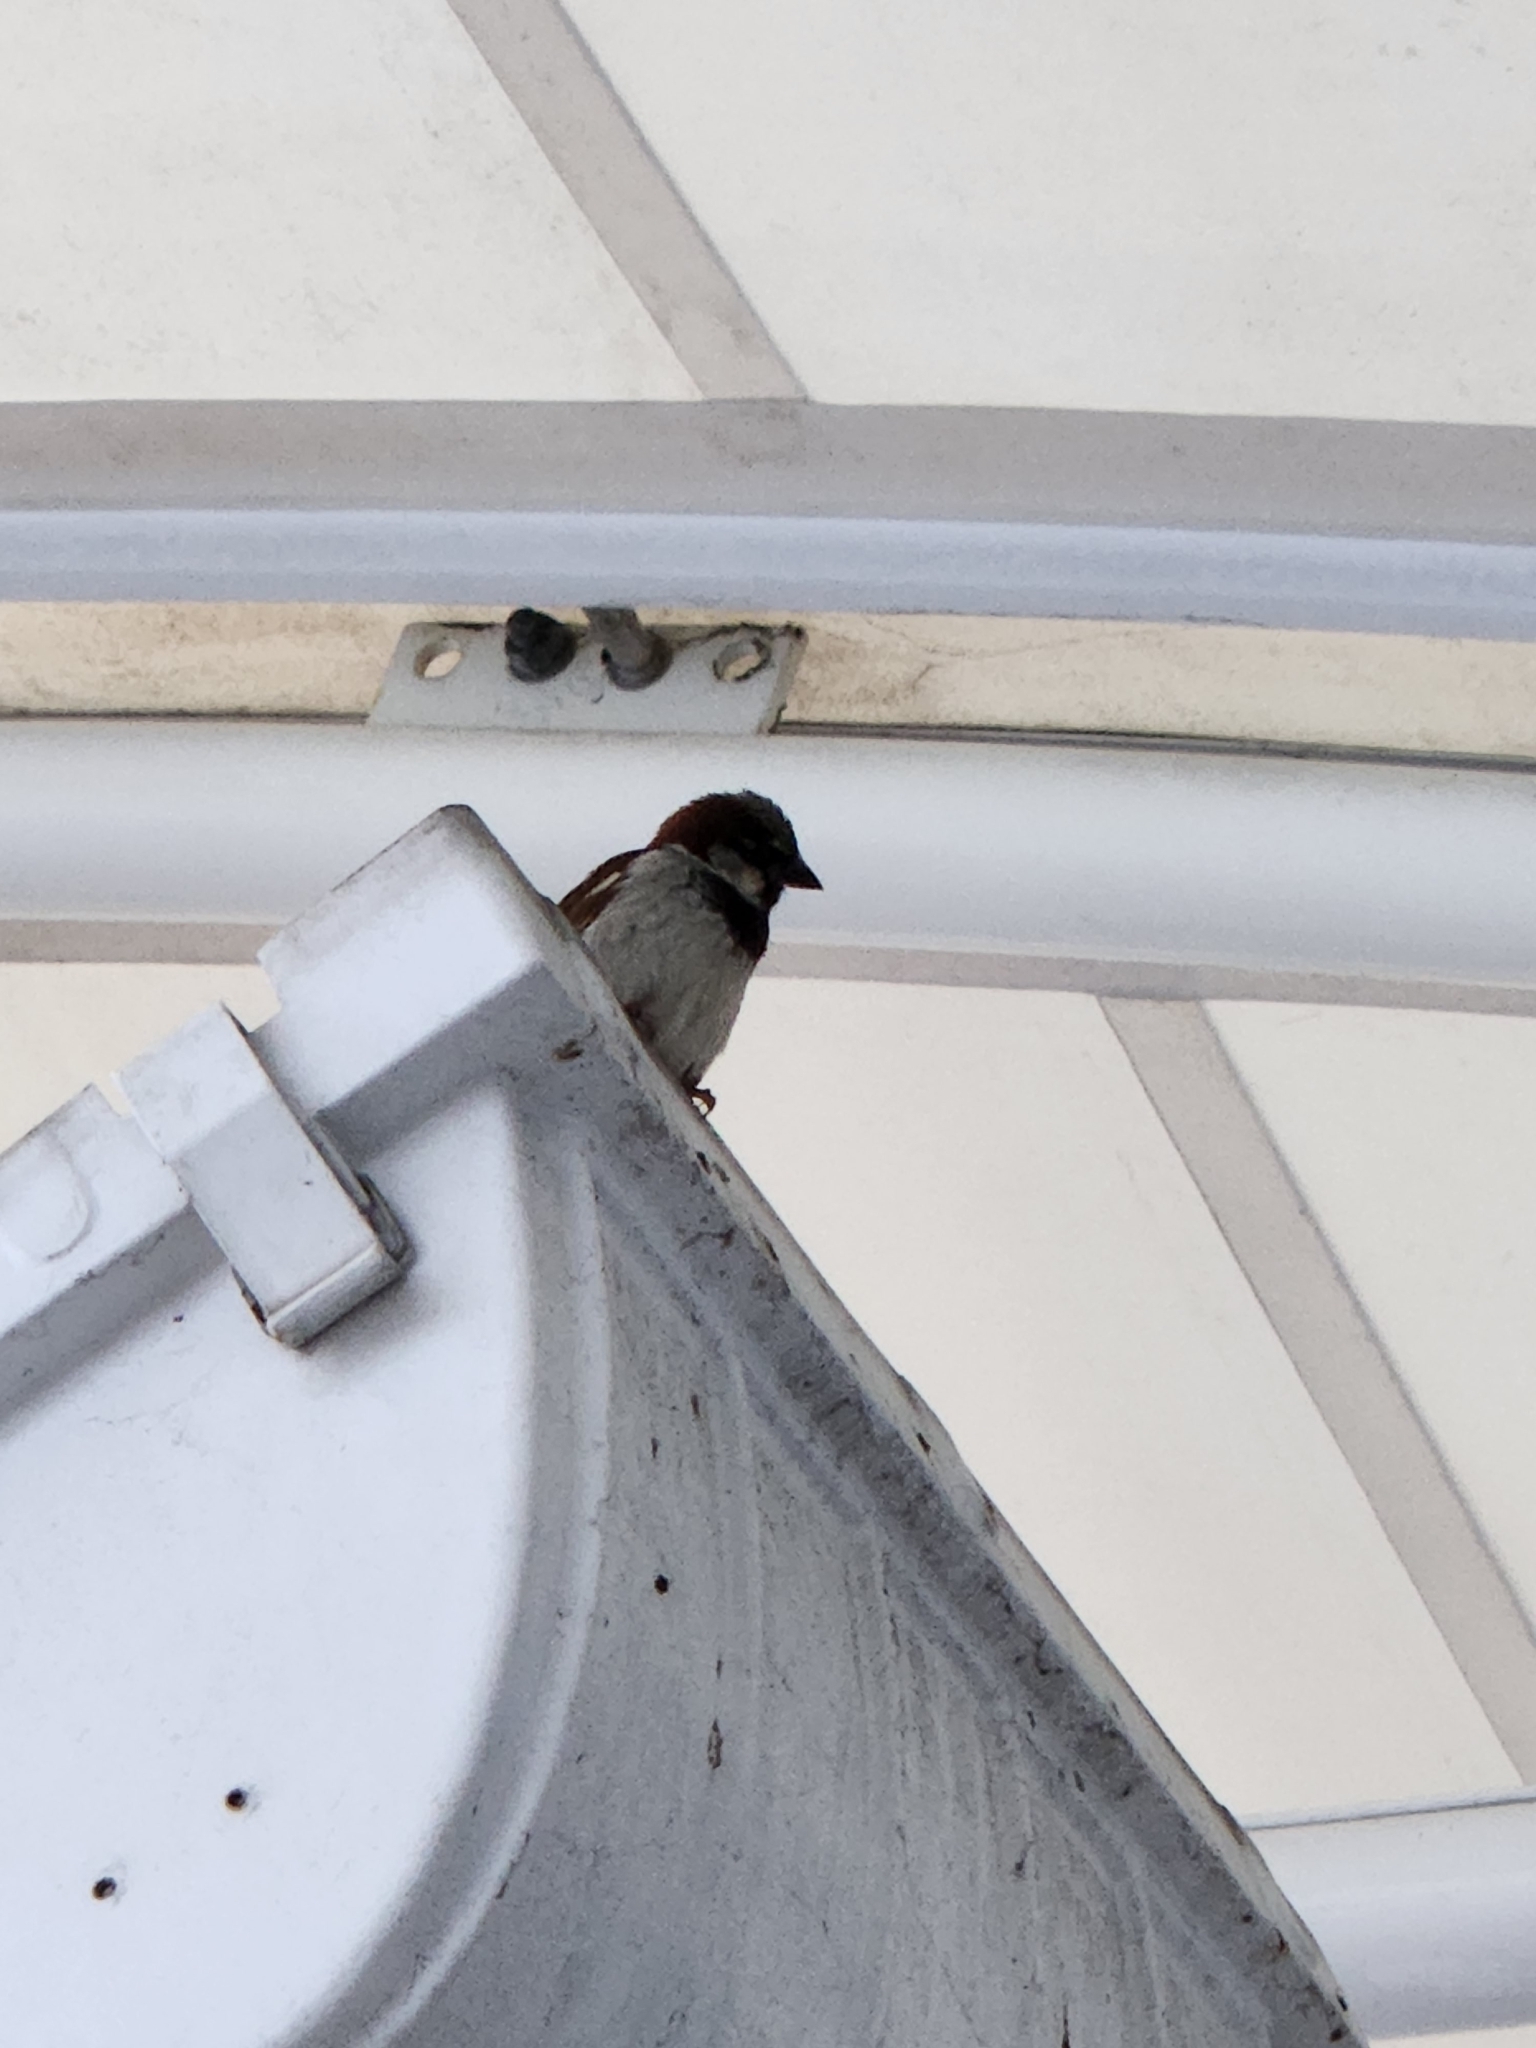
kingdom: Animalia
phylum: Chordata
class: Aves
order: Passeriformes
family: Passeridae
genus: Passer
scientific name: Passer domesticus
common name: House sparrow
